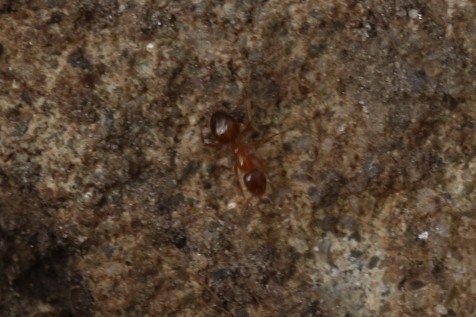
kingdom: Animalia
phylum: Arthropoda
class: Insecta
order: Hymenoptera
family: Formicidae
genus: Paratrechina
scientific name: Paratrechina flavipes
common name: Eastern asian formicine ant
